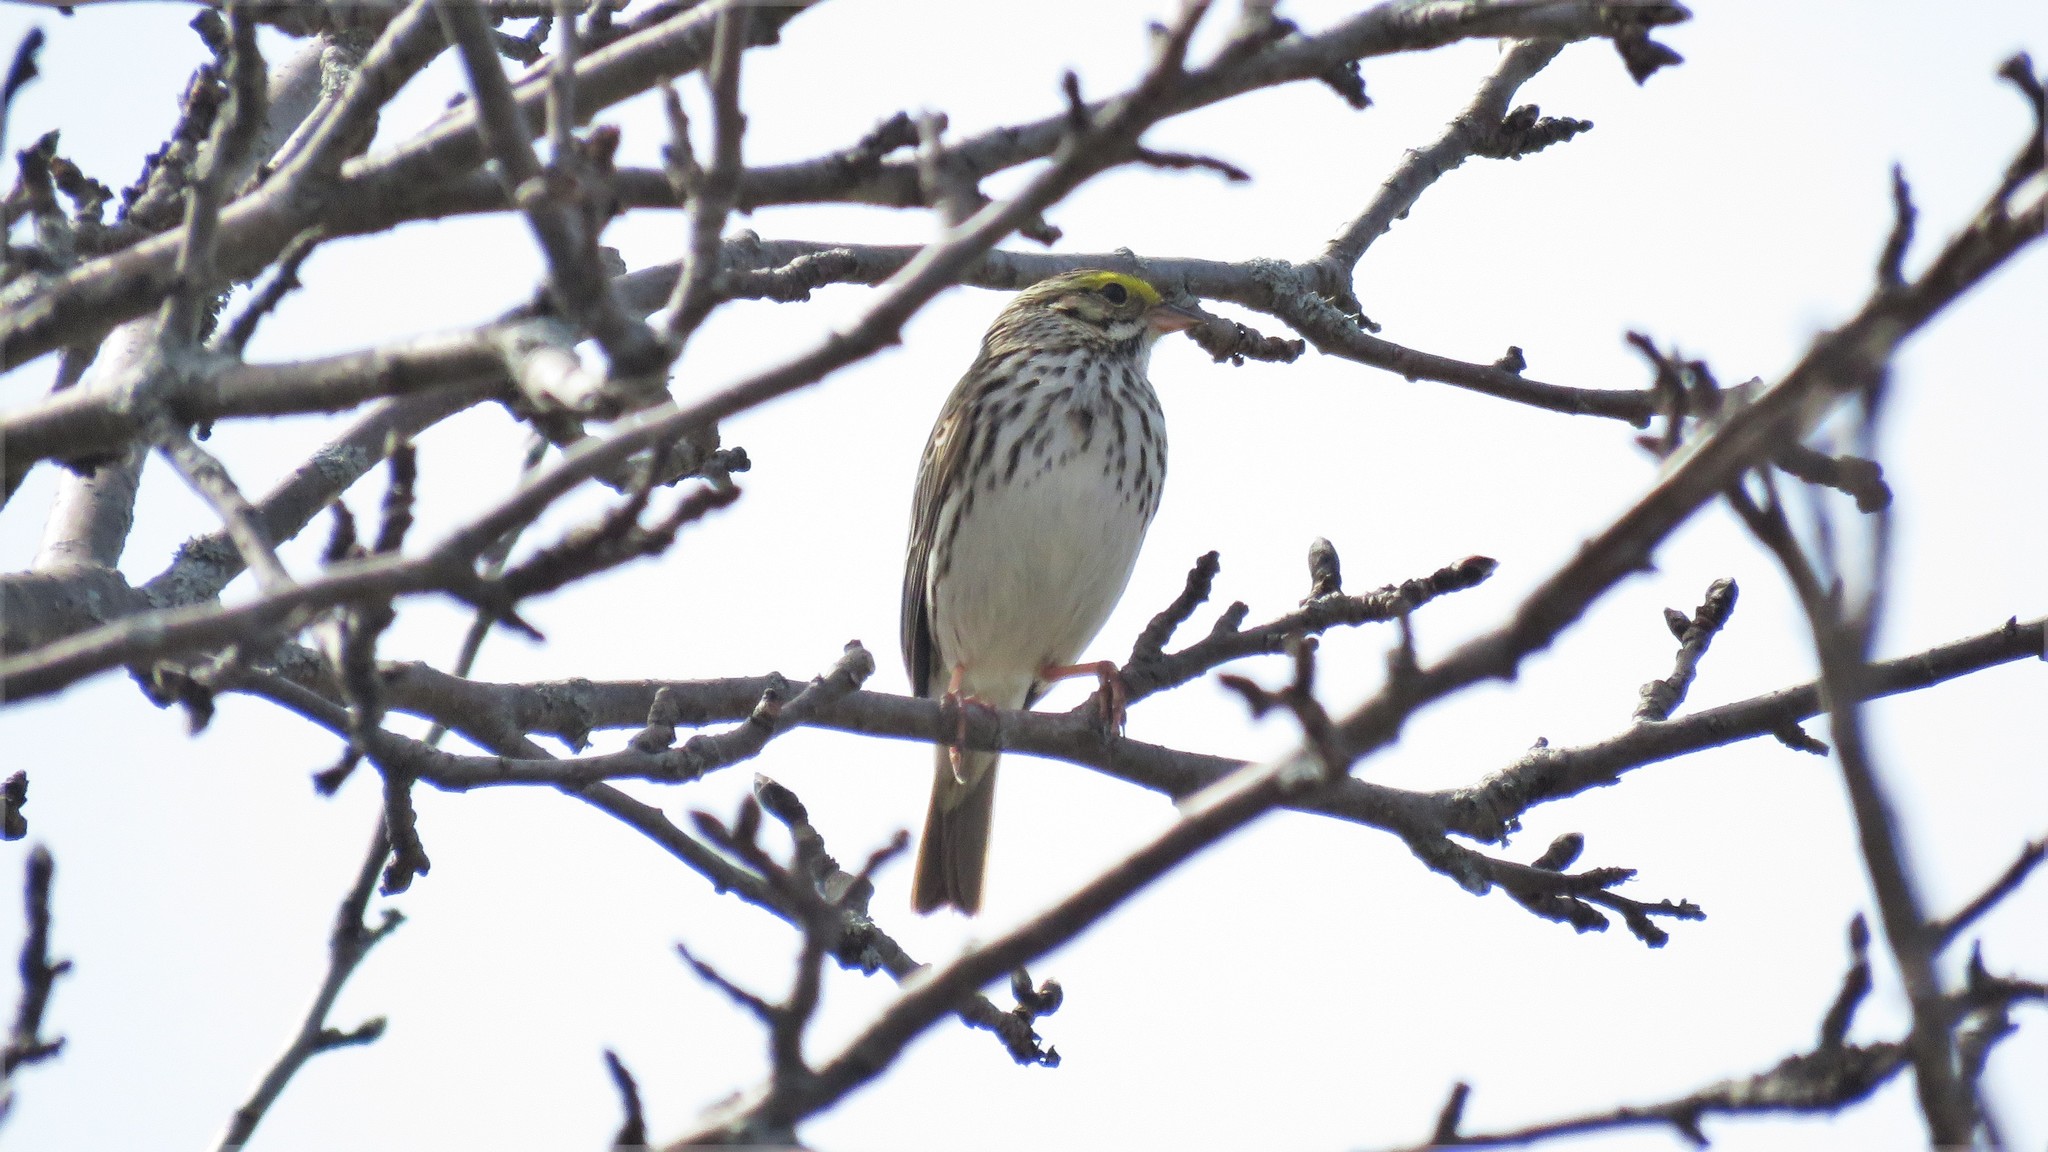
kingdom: Animalia
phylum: Chordata
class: Aves
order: Passeriformes
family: Passerellidae
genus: Passerculus
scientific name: Passerculus sandwichensis
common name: Savannah sparrow
